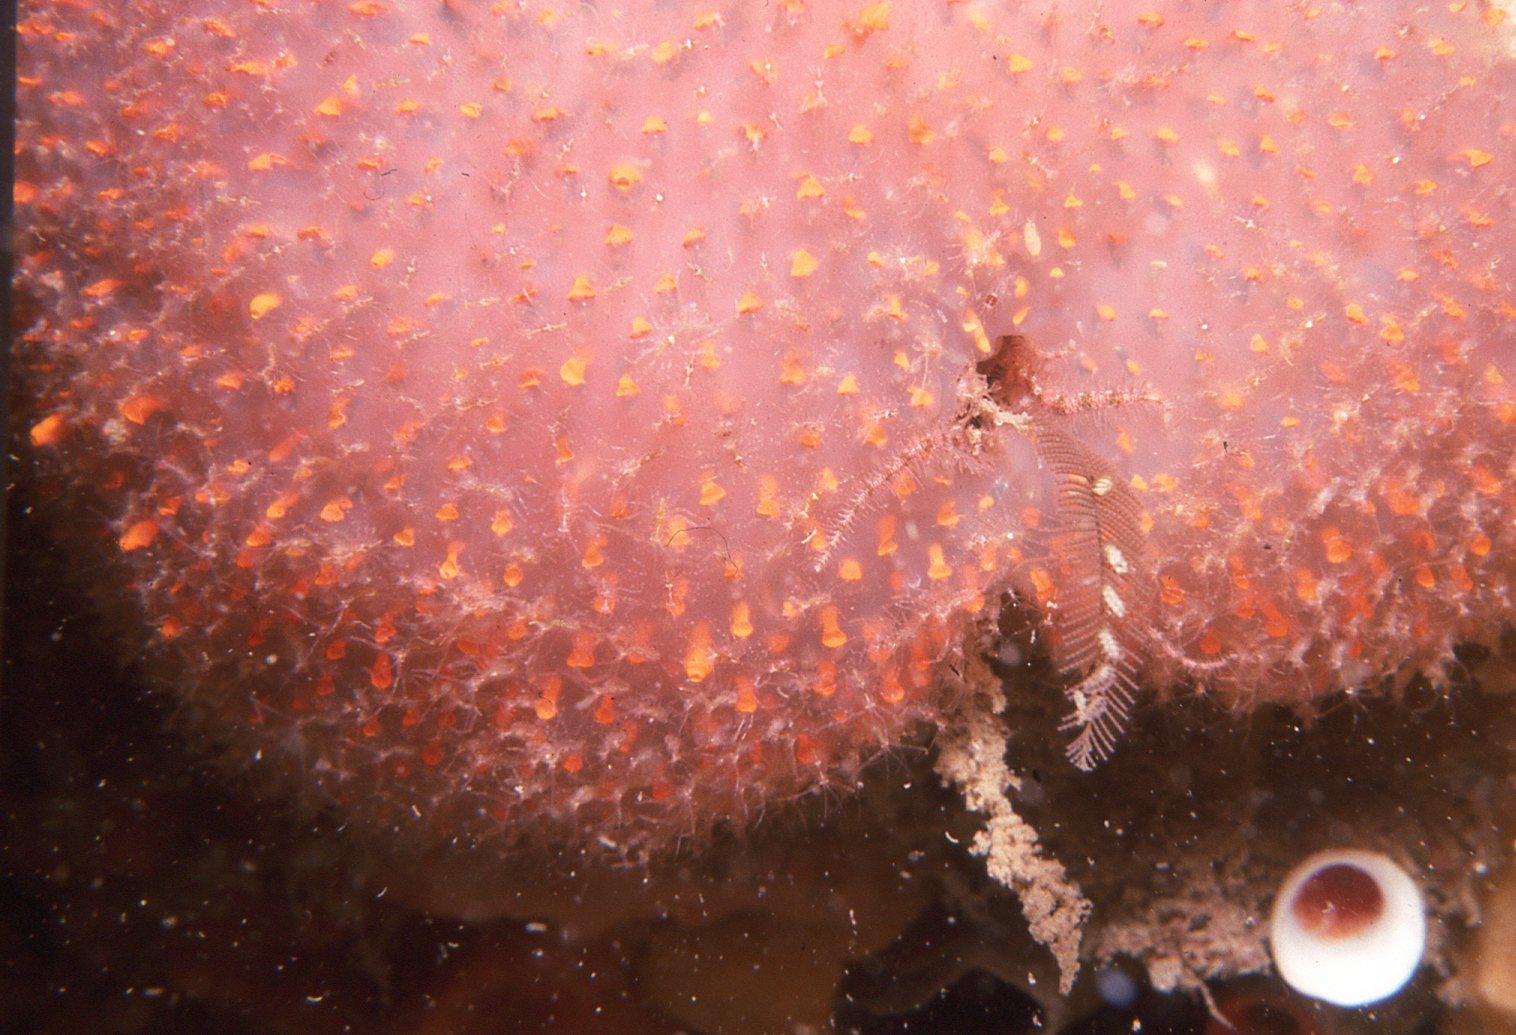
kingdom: Animalia
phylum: Chordata
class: Ascidiacea
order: Aplousobranchia
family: Polycitoridae
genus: Polycitor
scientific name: Polycitor giganteus
